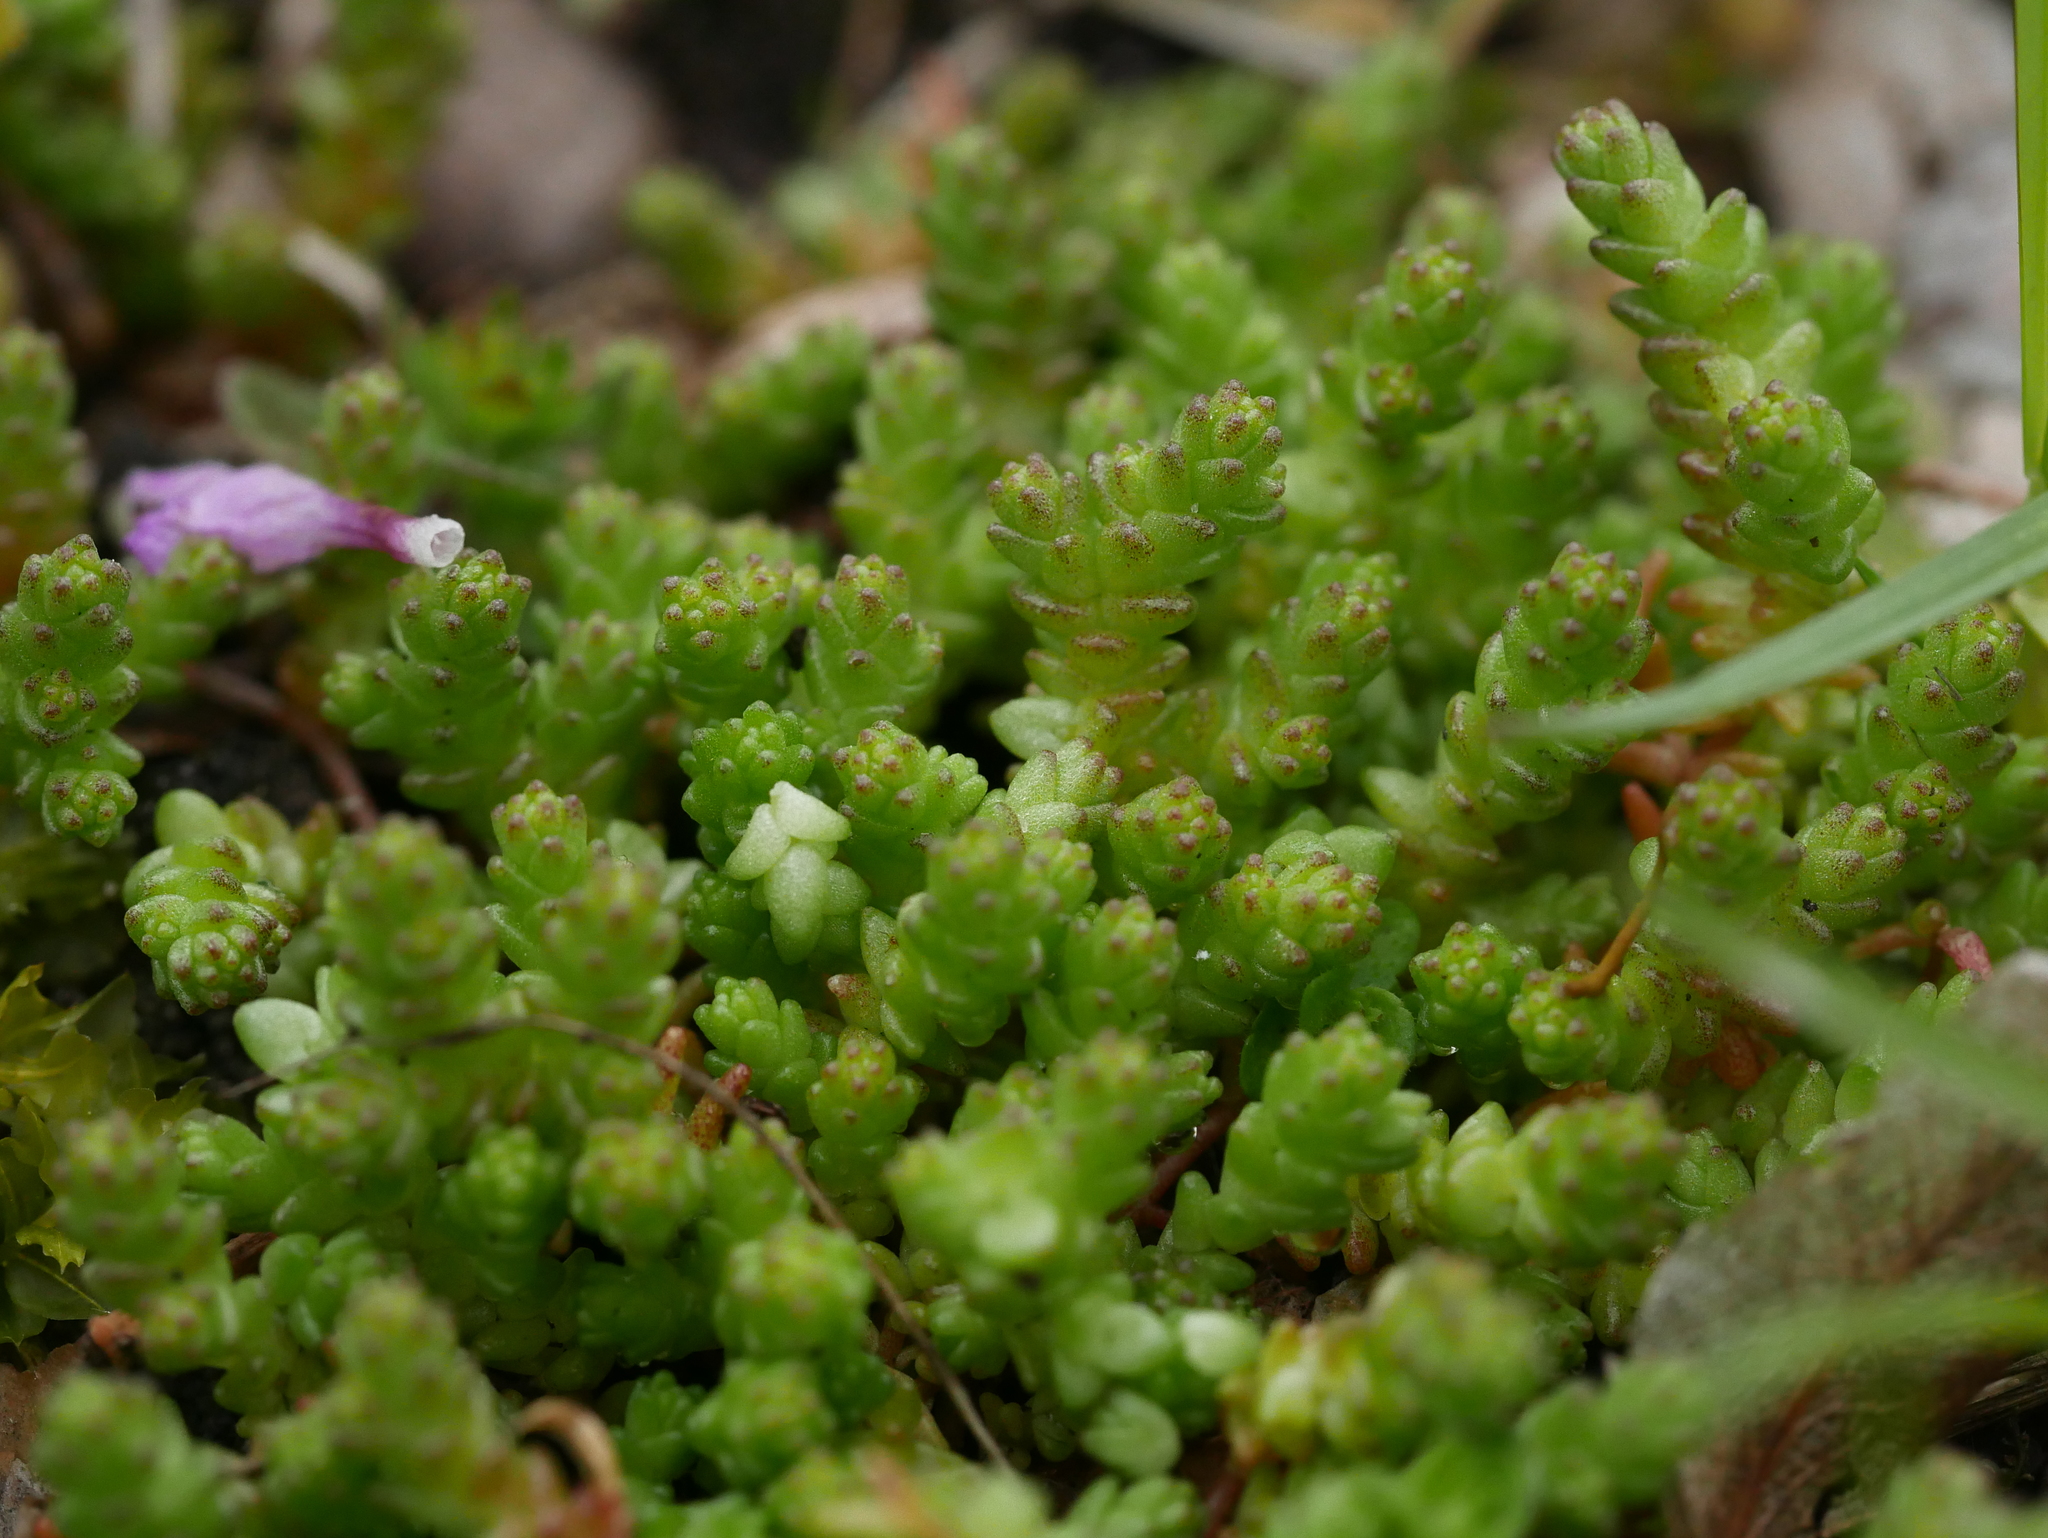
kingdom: Plantae
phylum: Tracheophyta
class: Magnoliopsida
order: Saxifragales
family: Crassulaceae
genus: Sedum
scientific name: Sedum acre
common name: Biting stonecrop
